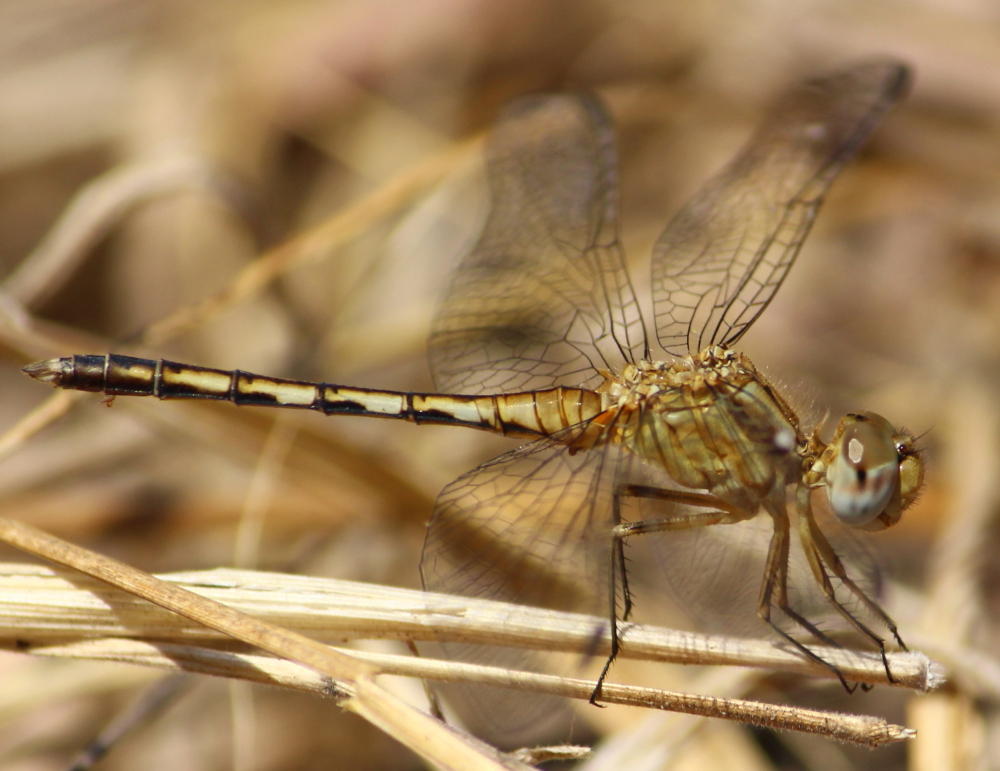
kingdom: Animalia
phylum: Arthropoda
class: Insecta
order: Odonata
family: Libellulidae
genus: Diplacodes
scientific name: Diplacodes lefebvrii
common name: Black percher
